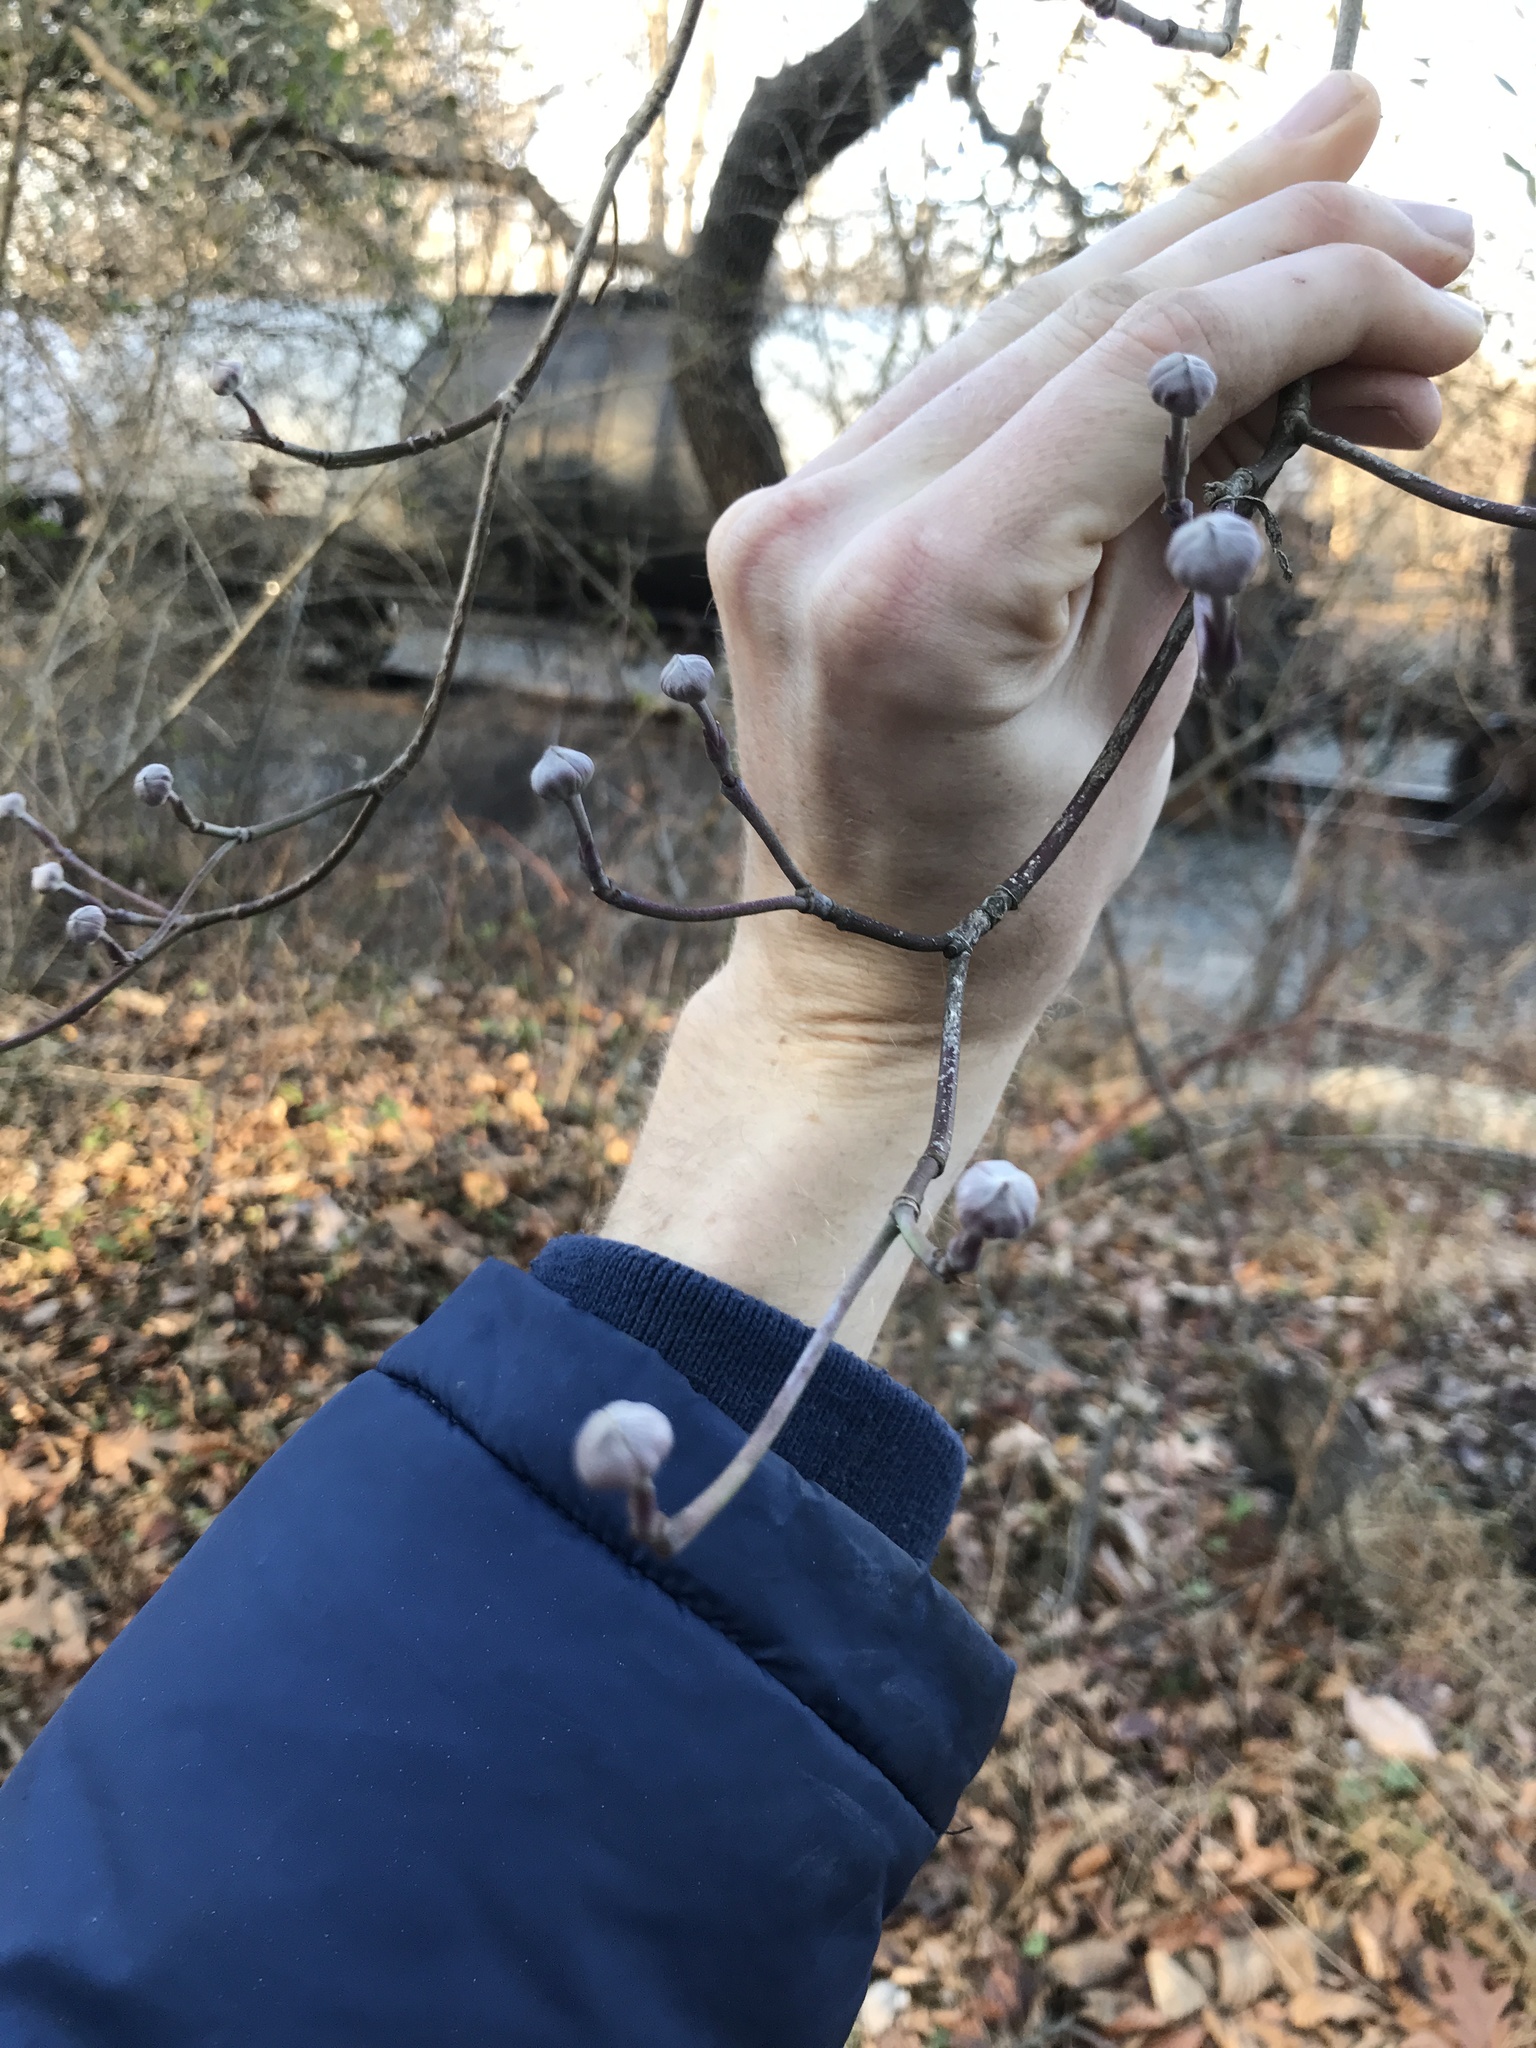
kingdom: Plantae
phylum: Tracheophyta
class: Magnoliopsida
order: Cornales
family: Cornaceae
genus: Cornus
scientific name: Cornus florida
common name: Flowering dogwood
